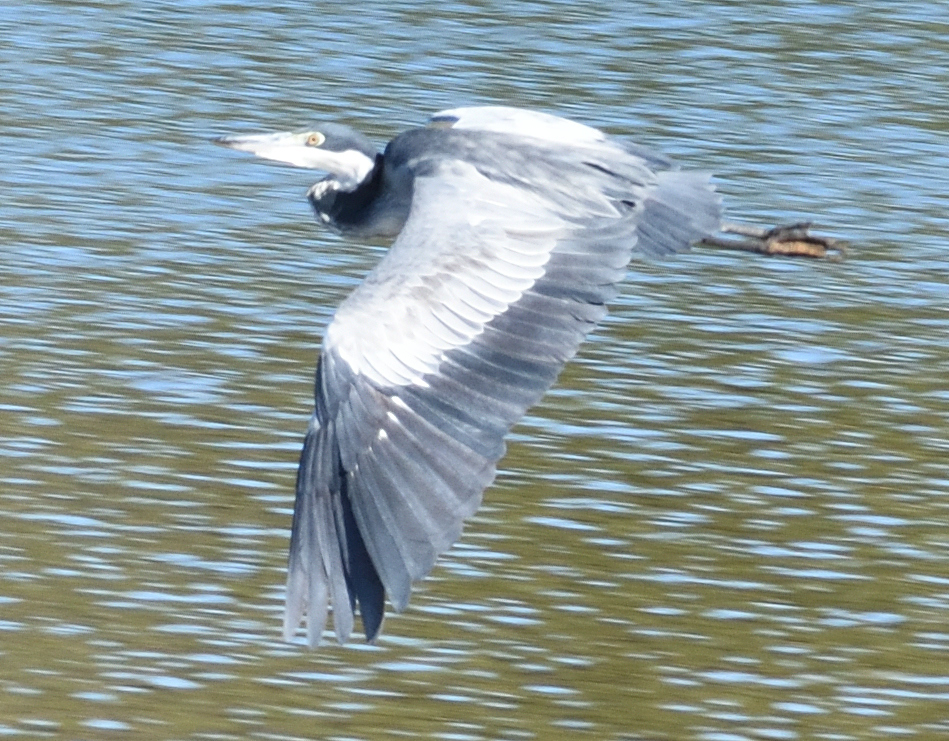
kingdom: Animalia
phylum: Chordata
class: Aves
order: Pelecaniformes
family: Ardeidae
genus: Ardea
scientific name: Ardea melanocephala
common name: Black-headed heron
